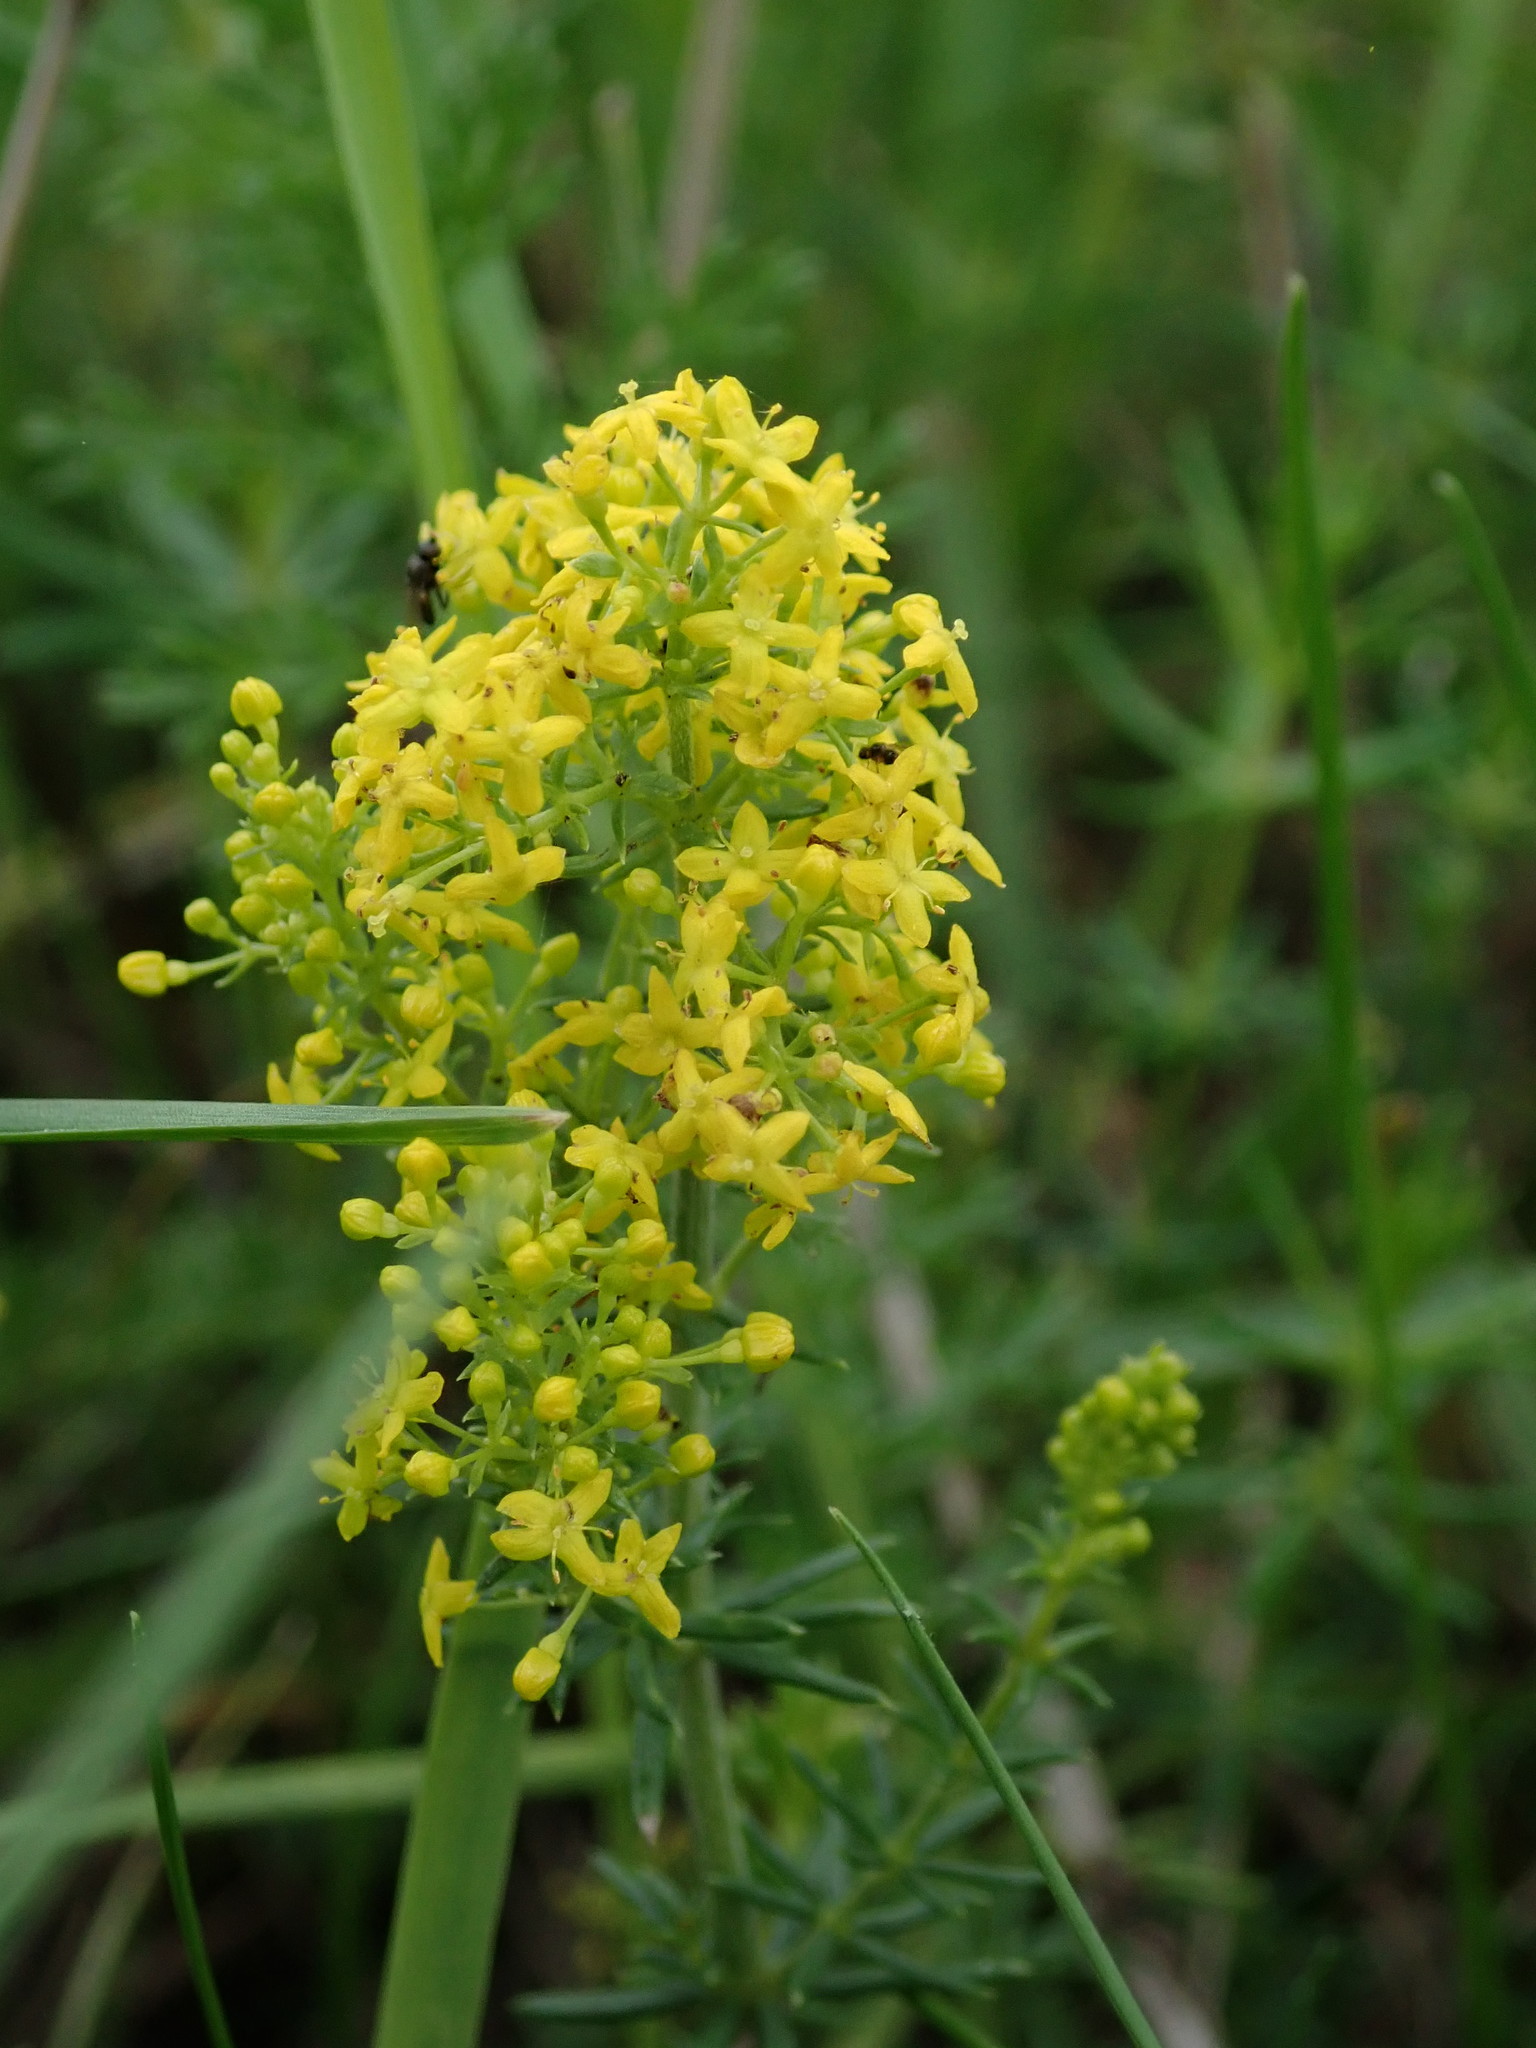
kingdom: Plantae
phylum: Tracheophyta
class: Magnoliopsida
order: Gentianales
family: Rubiaceae
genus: Galium
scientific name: Galium verum
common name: Lady's bedstraw
